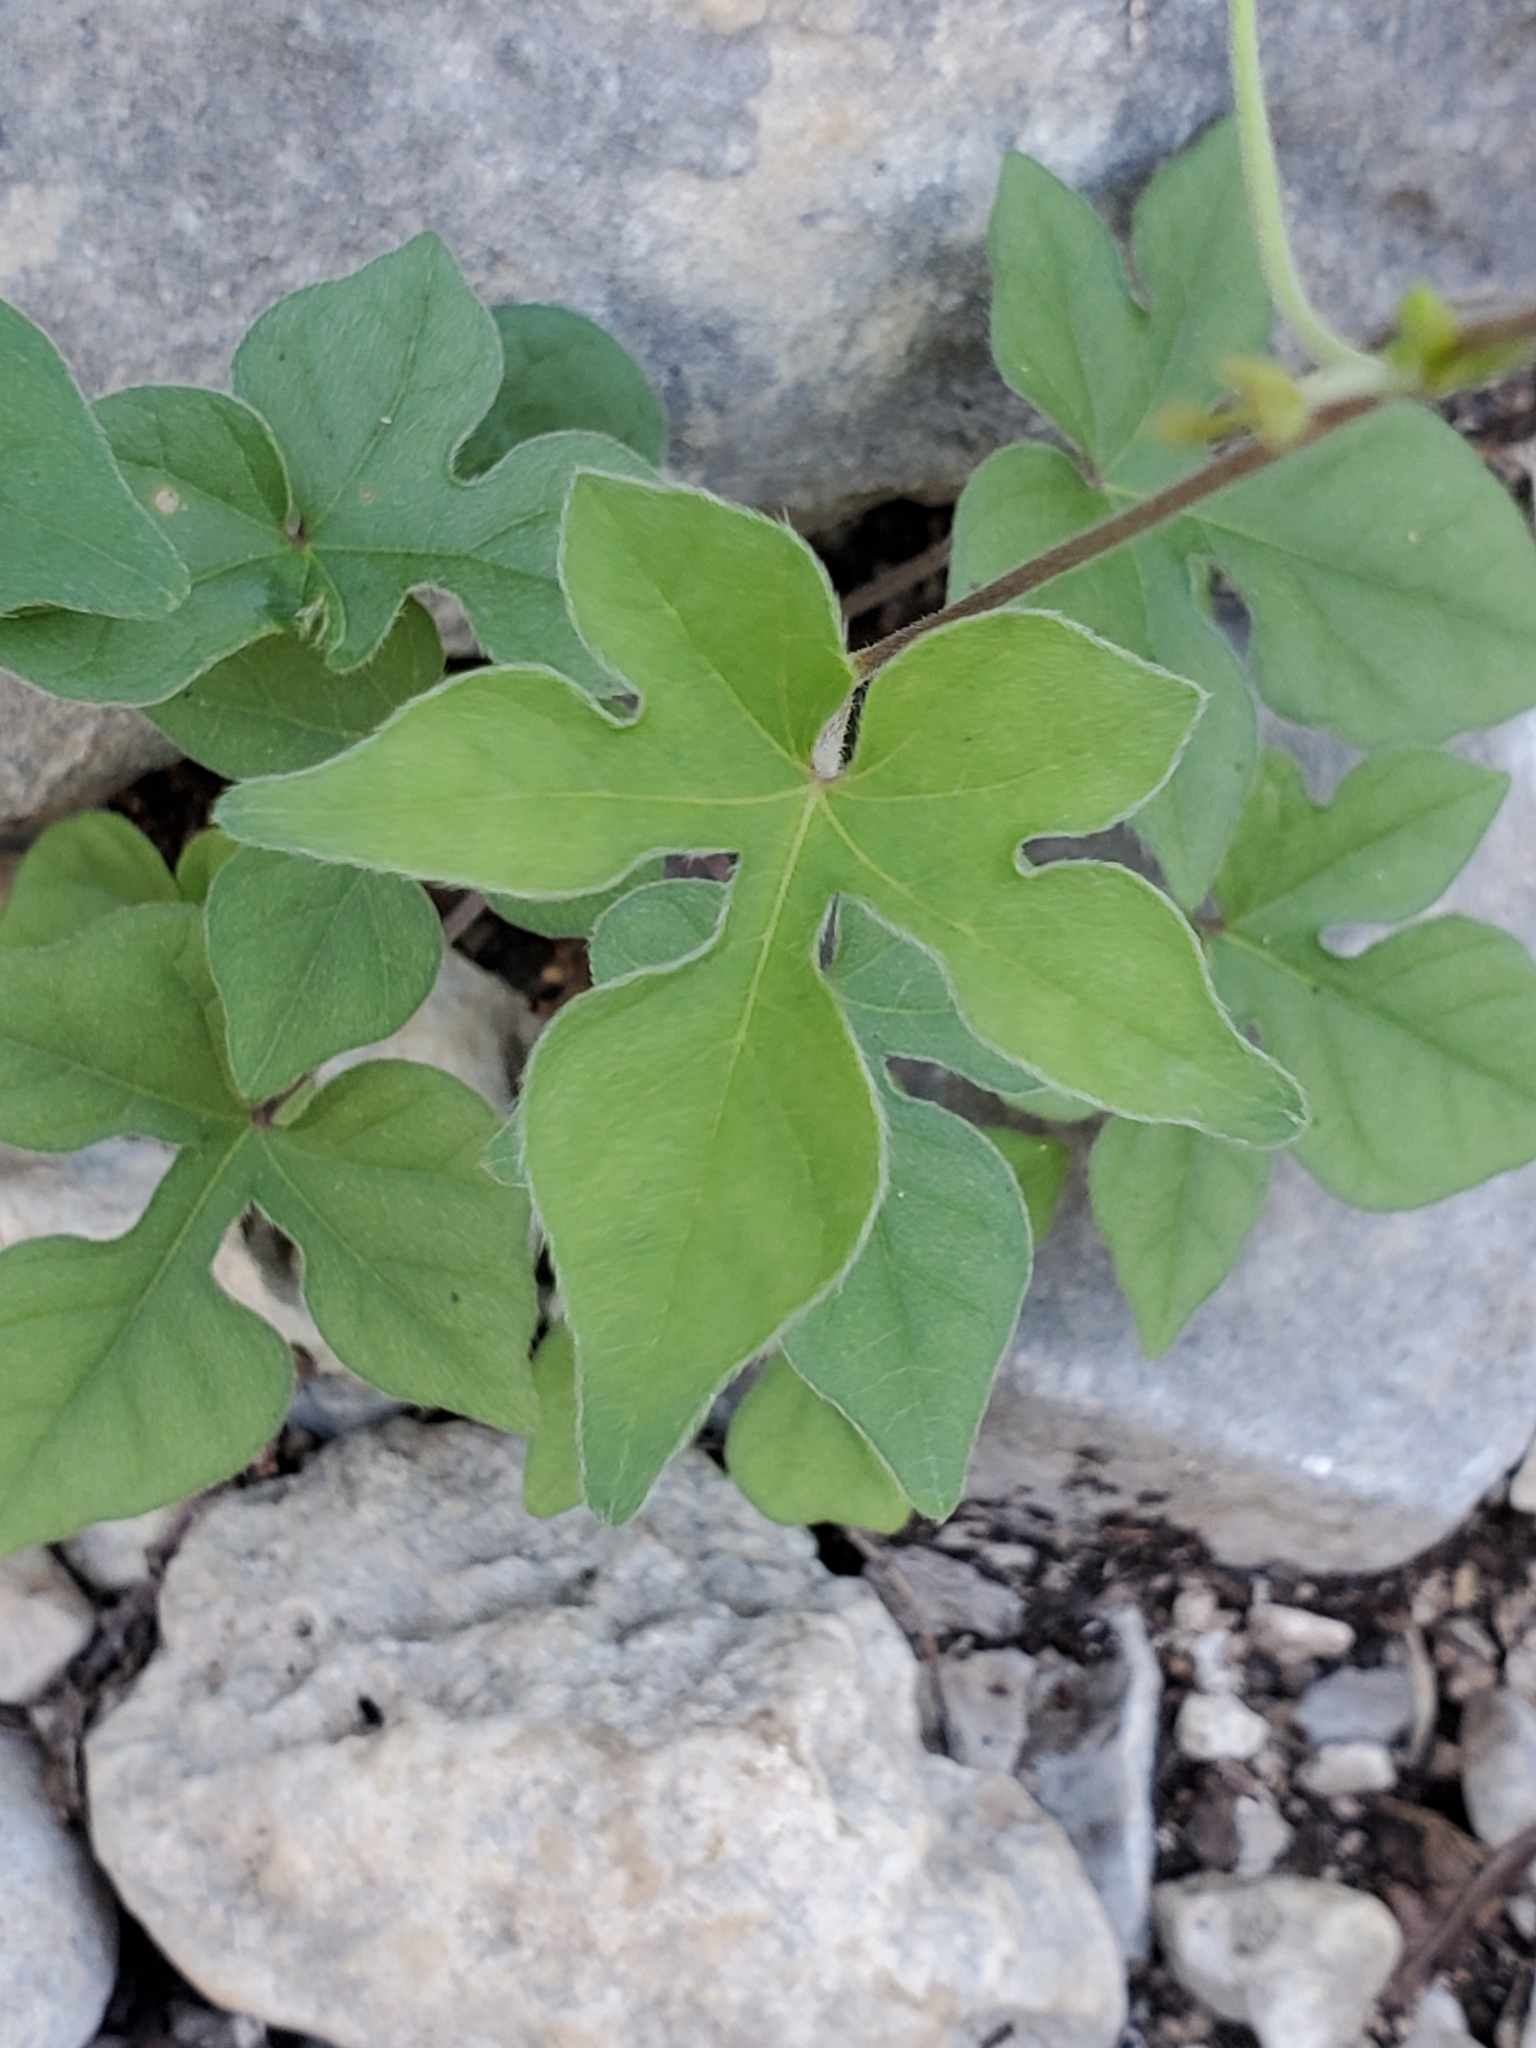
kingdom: Plantae
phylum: Tracheophyta
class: Magnoliopsida
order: Solanales
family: Convolvulaceae
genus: Ipomoea
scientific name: Ipomoea lindheimeri
